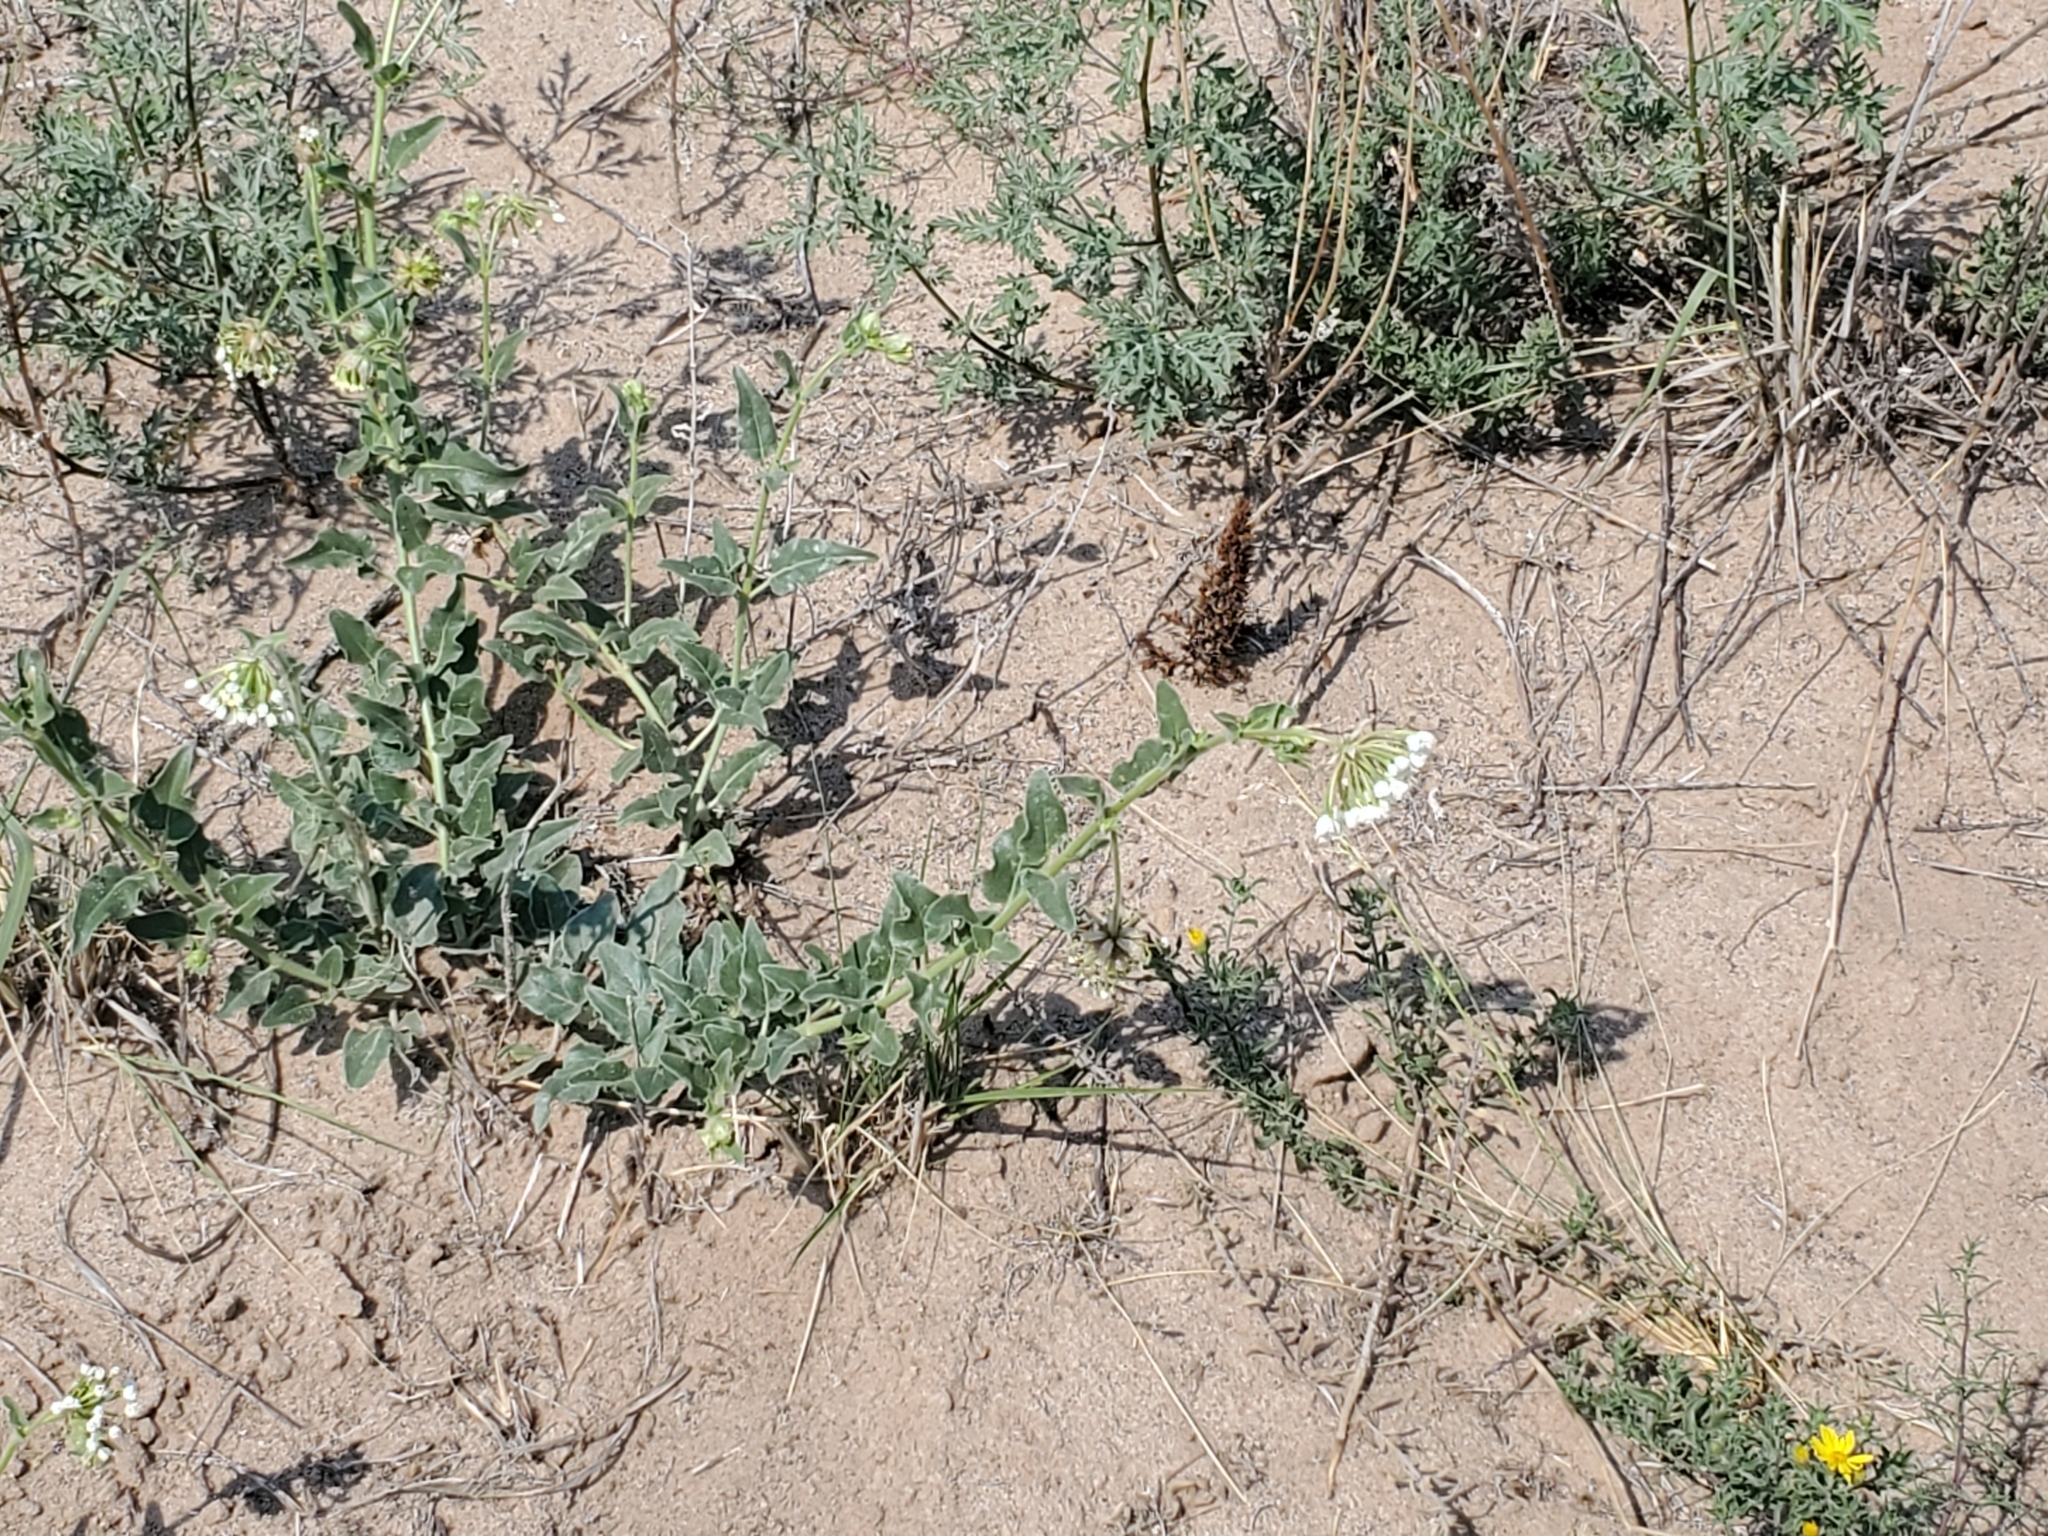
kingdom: Plantae
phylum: Tracheophyta
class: Magnoliopsida
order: Caryophyllales
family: Nyctaginaceae
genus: Abronia
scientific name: Abronia fragrans
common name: Fragrant sand-verbena
